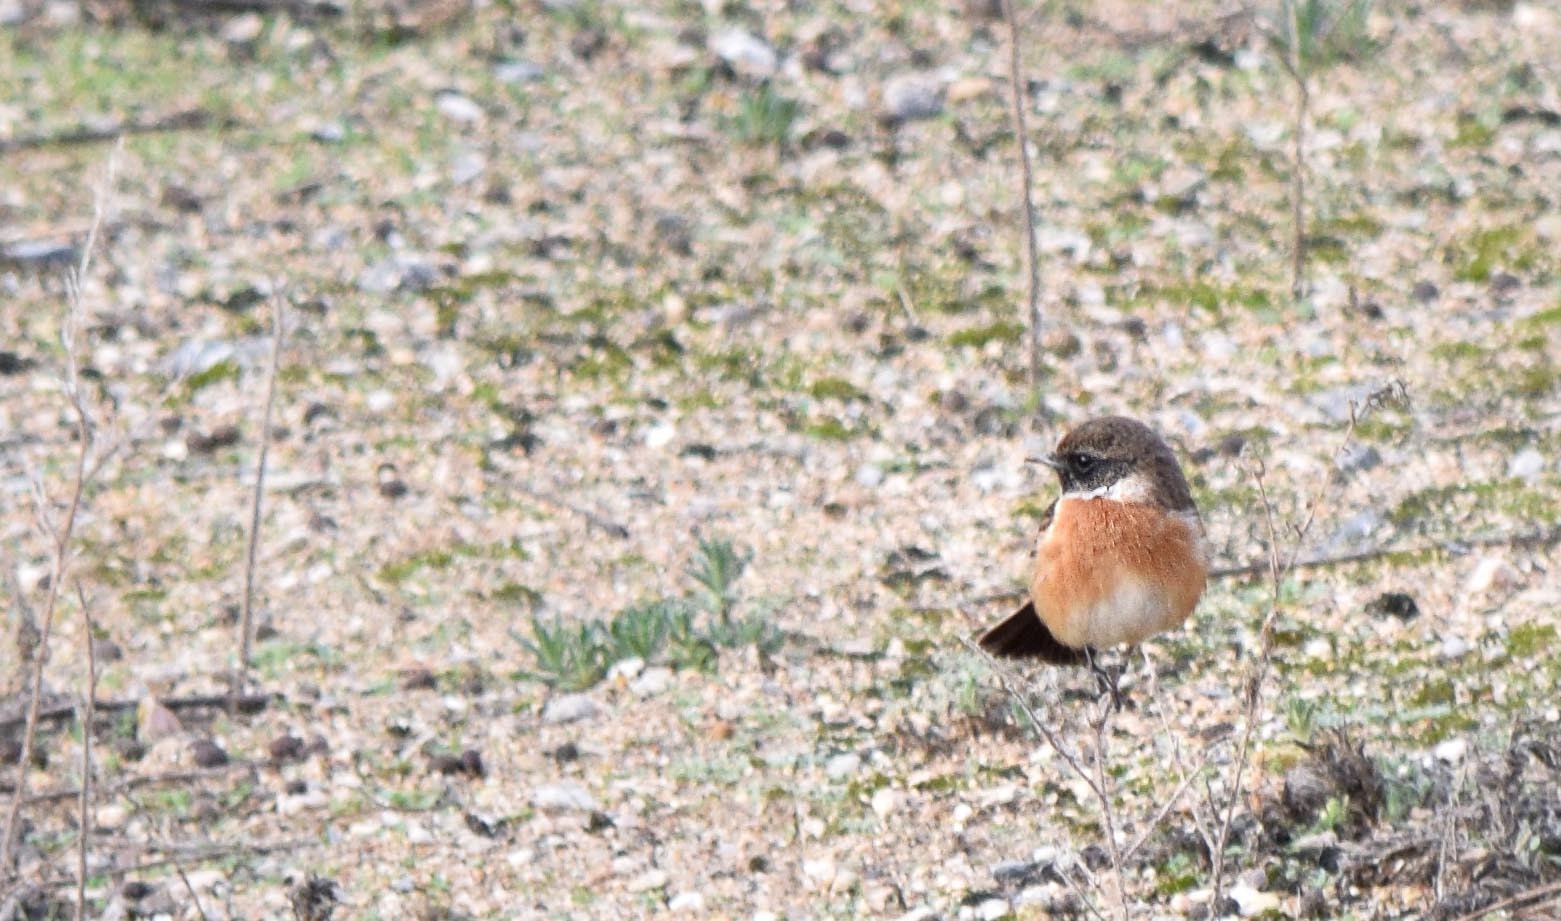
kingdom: Animalia
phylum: Chordata
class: Aves
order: Passeriformes
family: Muscicapidae
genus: Saxicola
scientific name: Saxicola rubicola
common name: European stonechat
